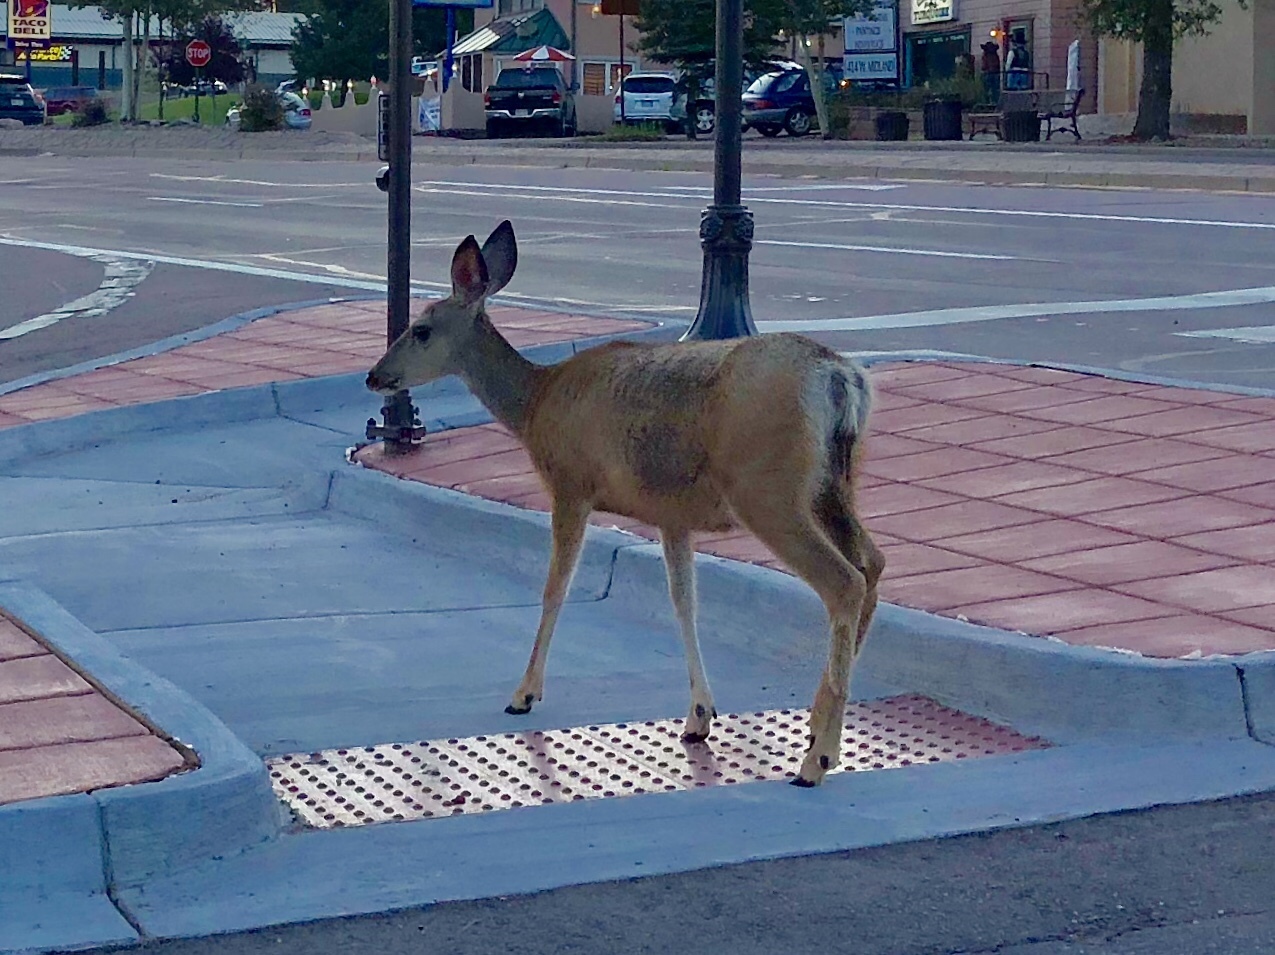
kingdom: Animalia
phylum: Chordata
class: Mammalia
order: Artiodactyla
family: Cervidae
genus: Odocoileus
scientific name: Odocoileus hemionus
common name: Mule deer
